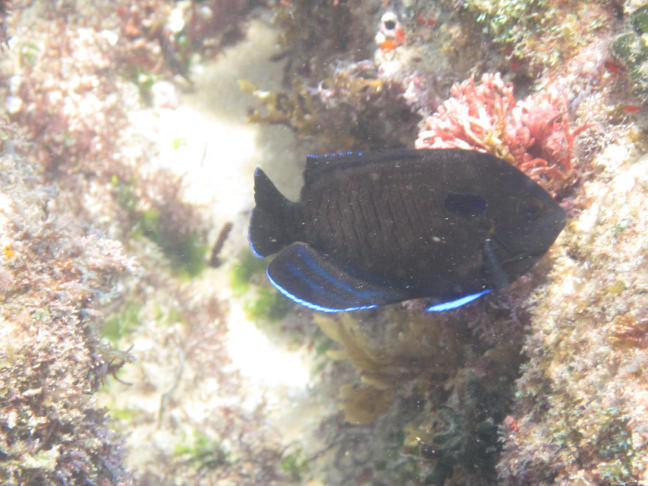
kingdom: Animalia
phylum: Chordata
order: Perciformes
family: Pomacanthidae
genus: Centropyge
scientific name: Centropyge multispinis
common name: Many-spined angelfish
